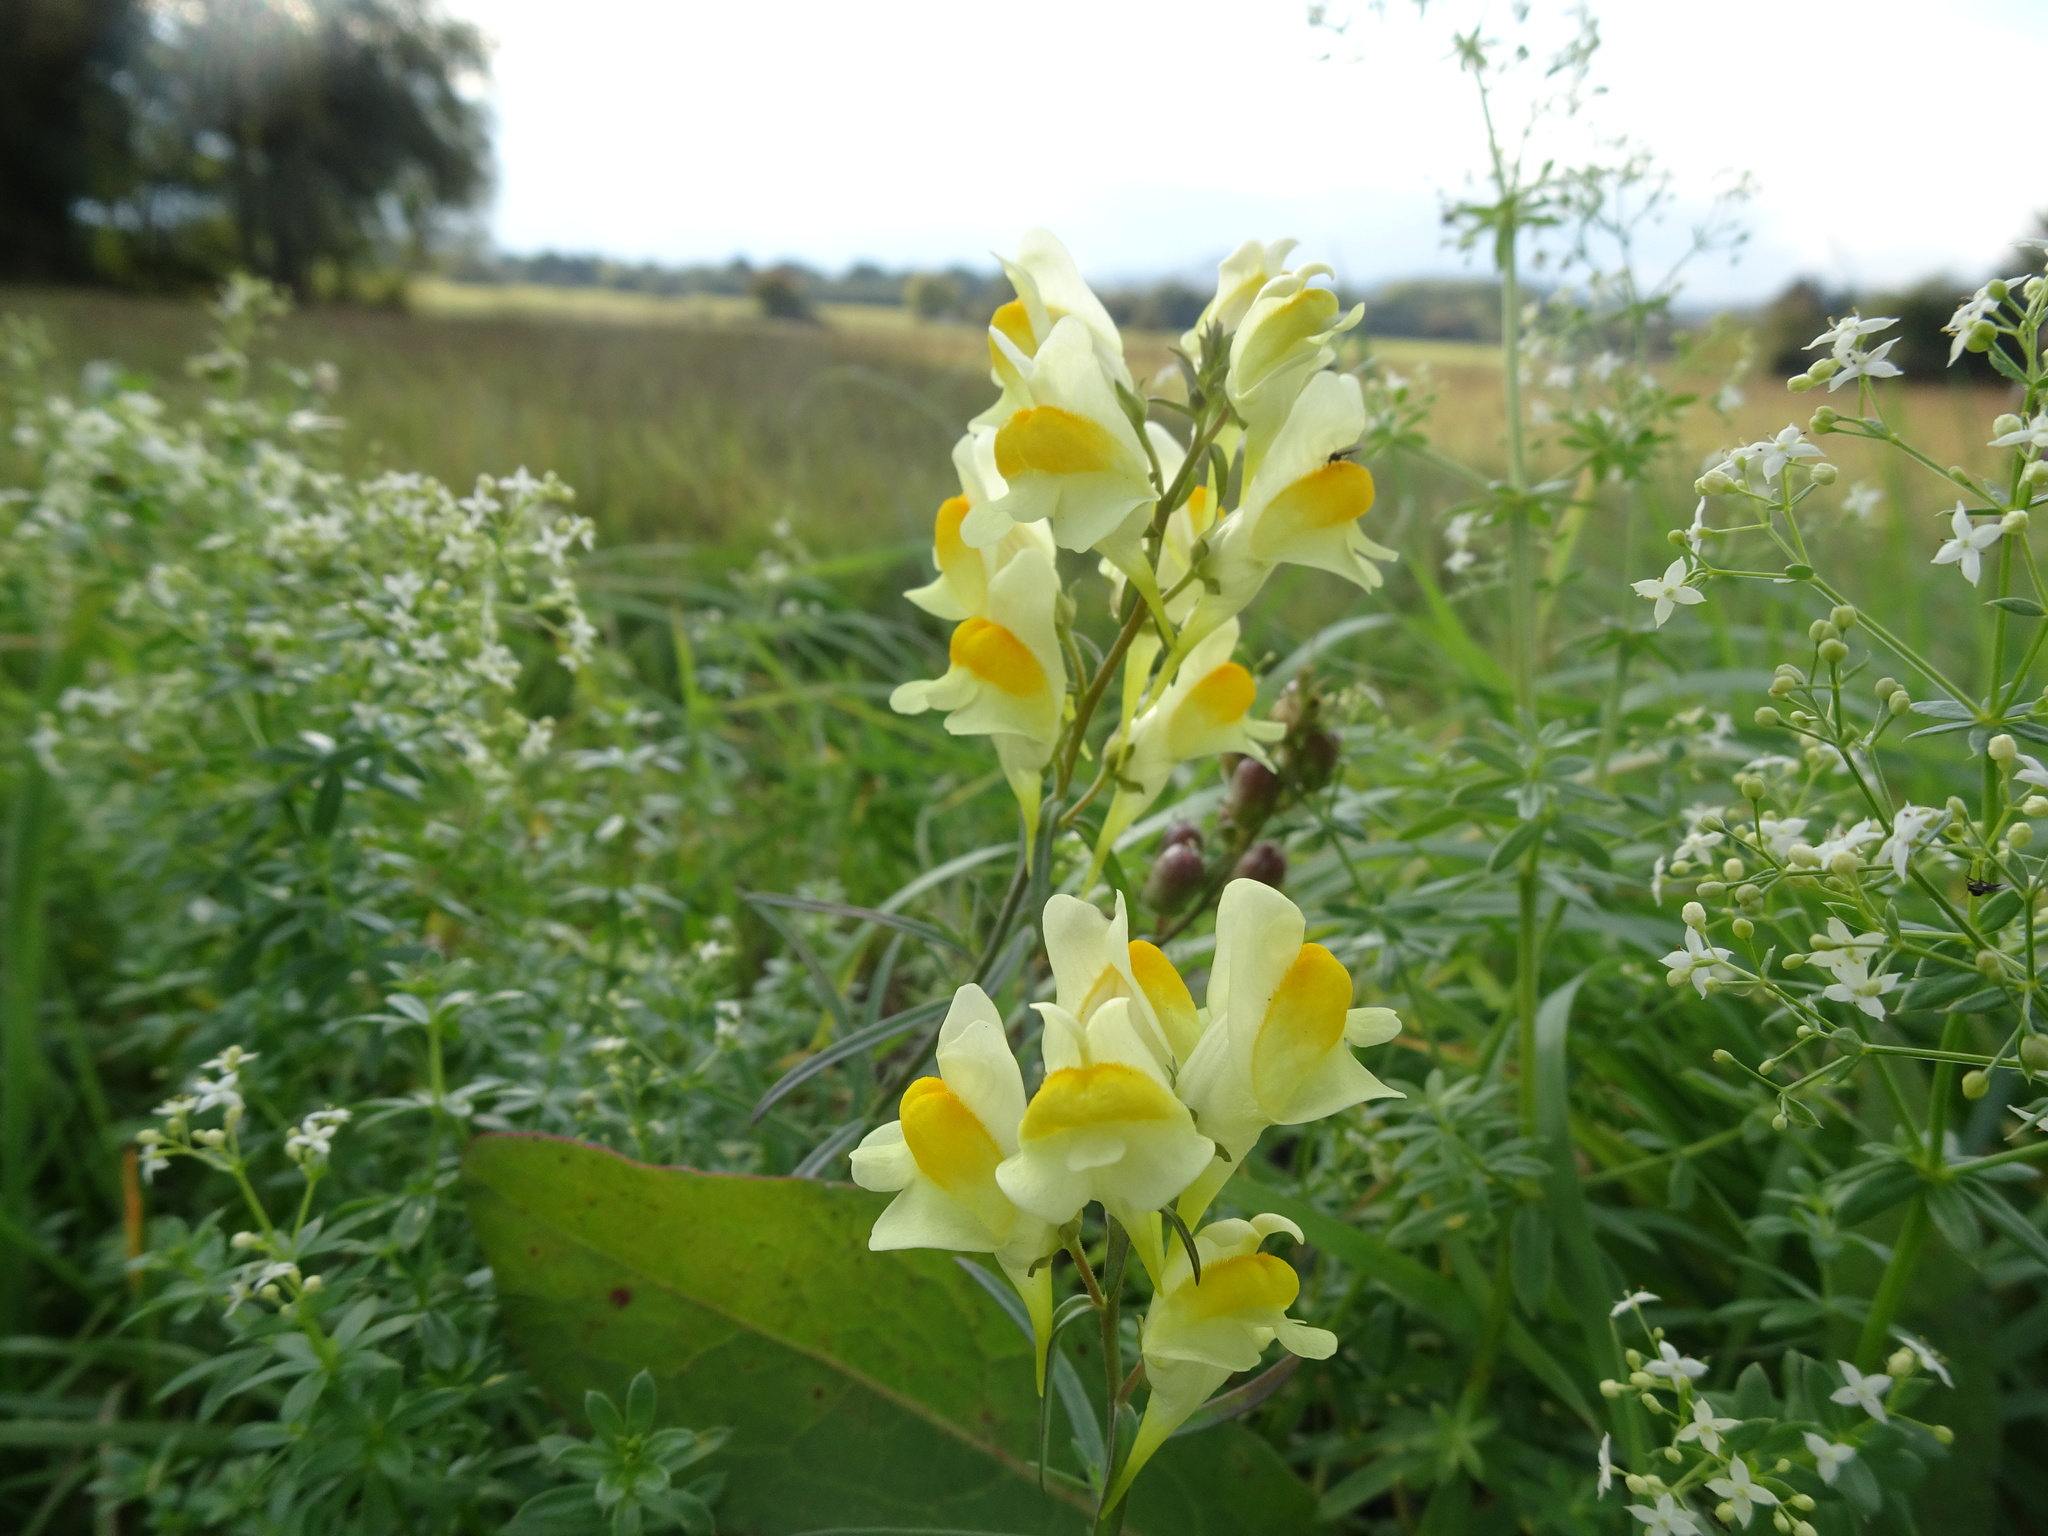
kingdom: Plantae
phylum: Tracheophyta
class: Magnoliopsida
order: Lamiales
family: Plantaginaceae
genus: Linaria
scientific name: Linaria vulgaris
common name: Butter and eggs
